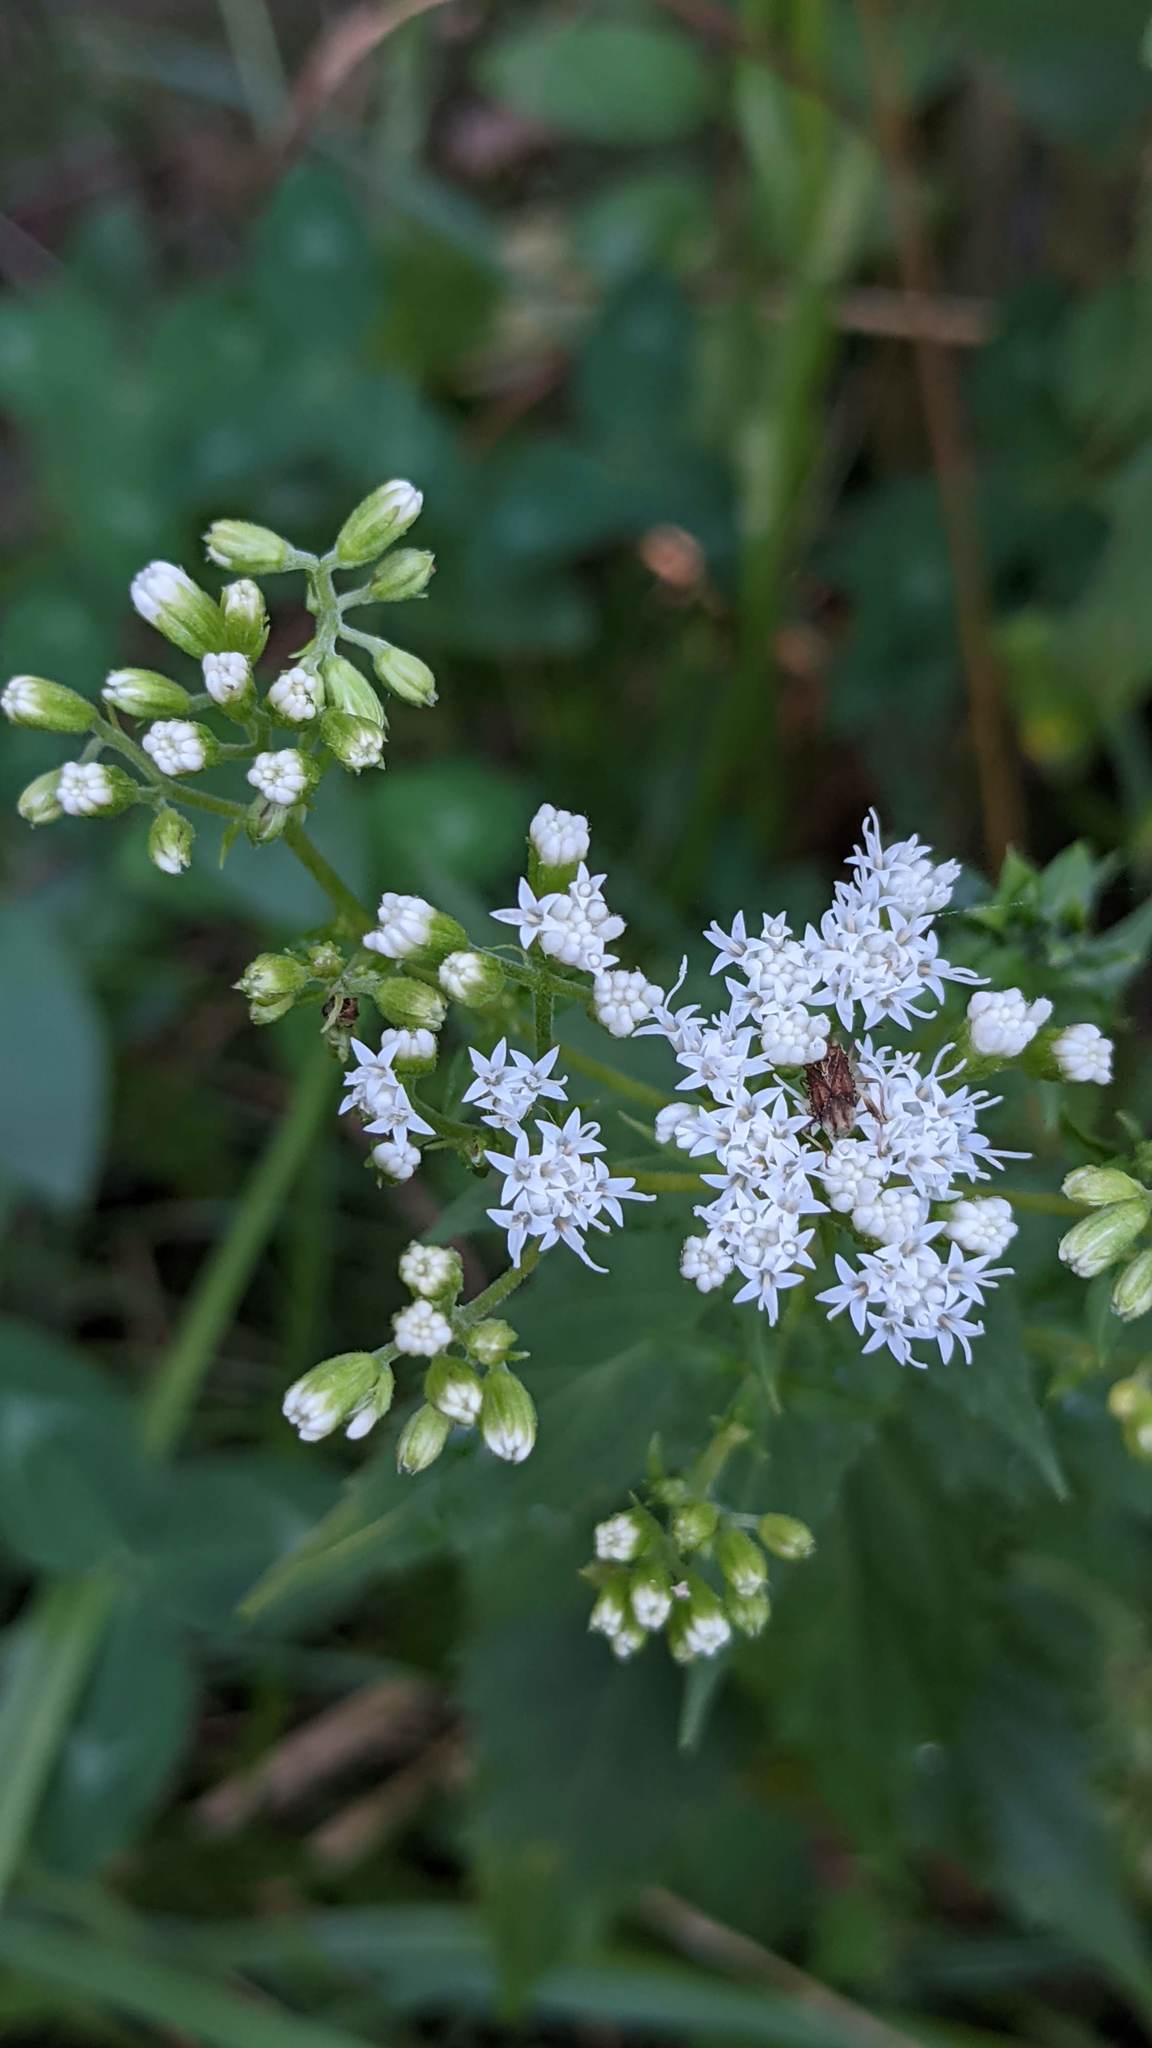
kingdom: Plantae
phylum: Tracheophyta
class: Magnoliopsida
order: Asterales
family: Asteraceae
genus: Ageratina
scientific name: Ageratina altissima
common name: White snakeroot
